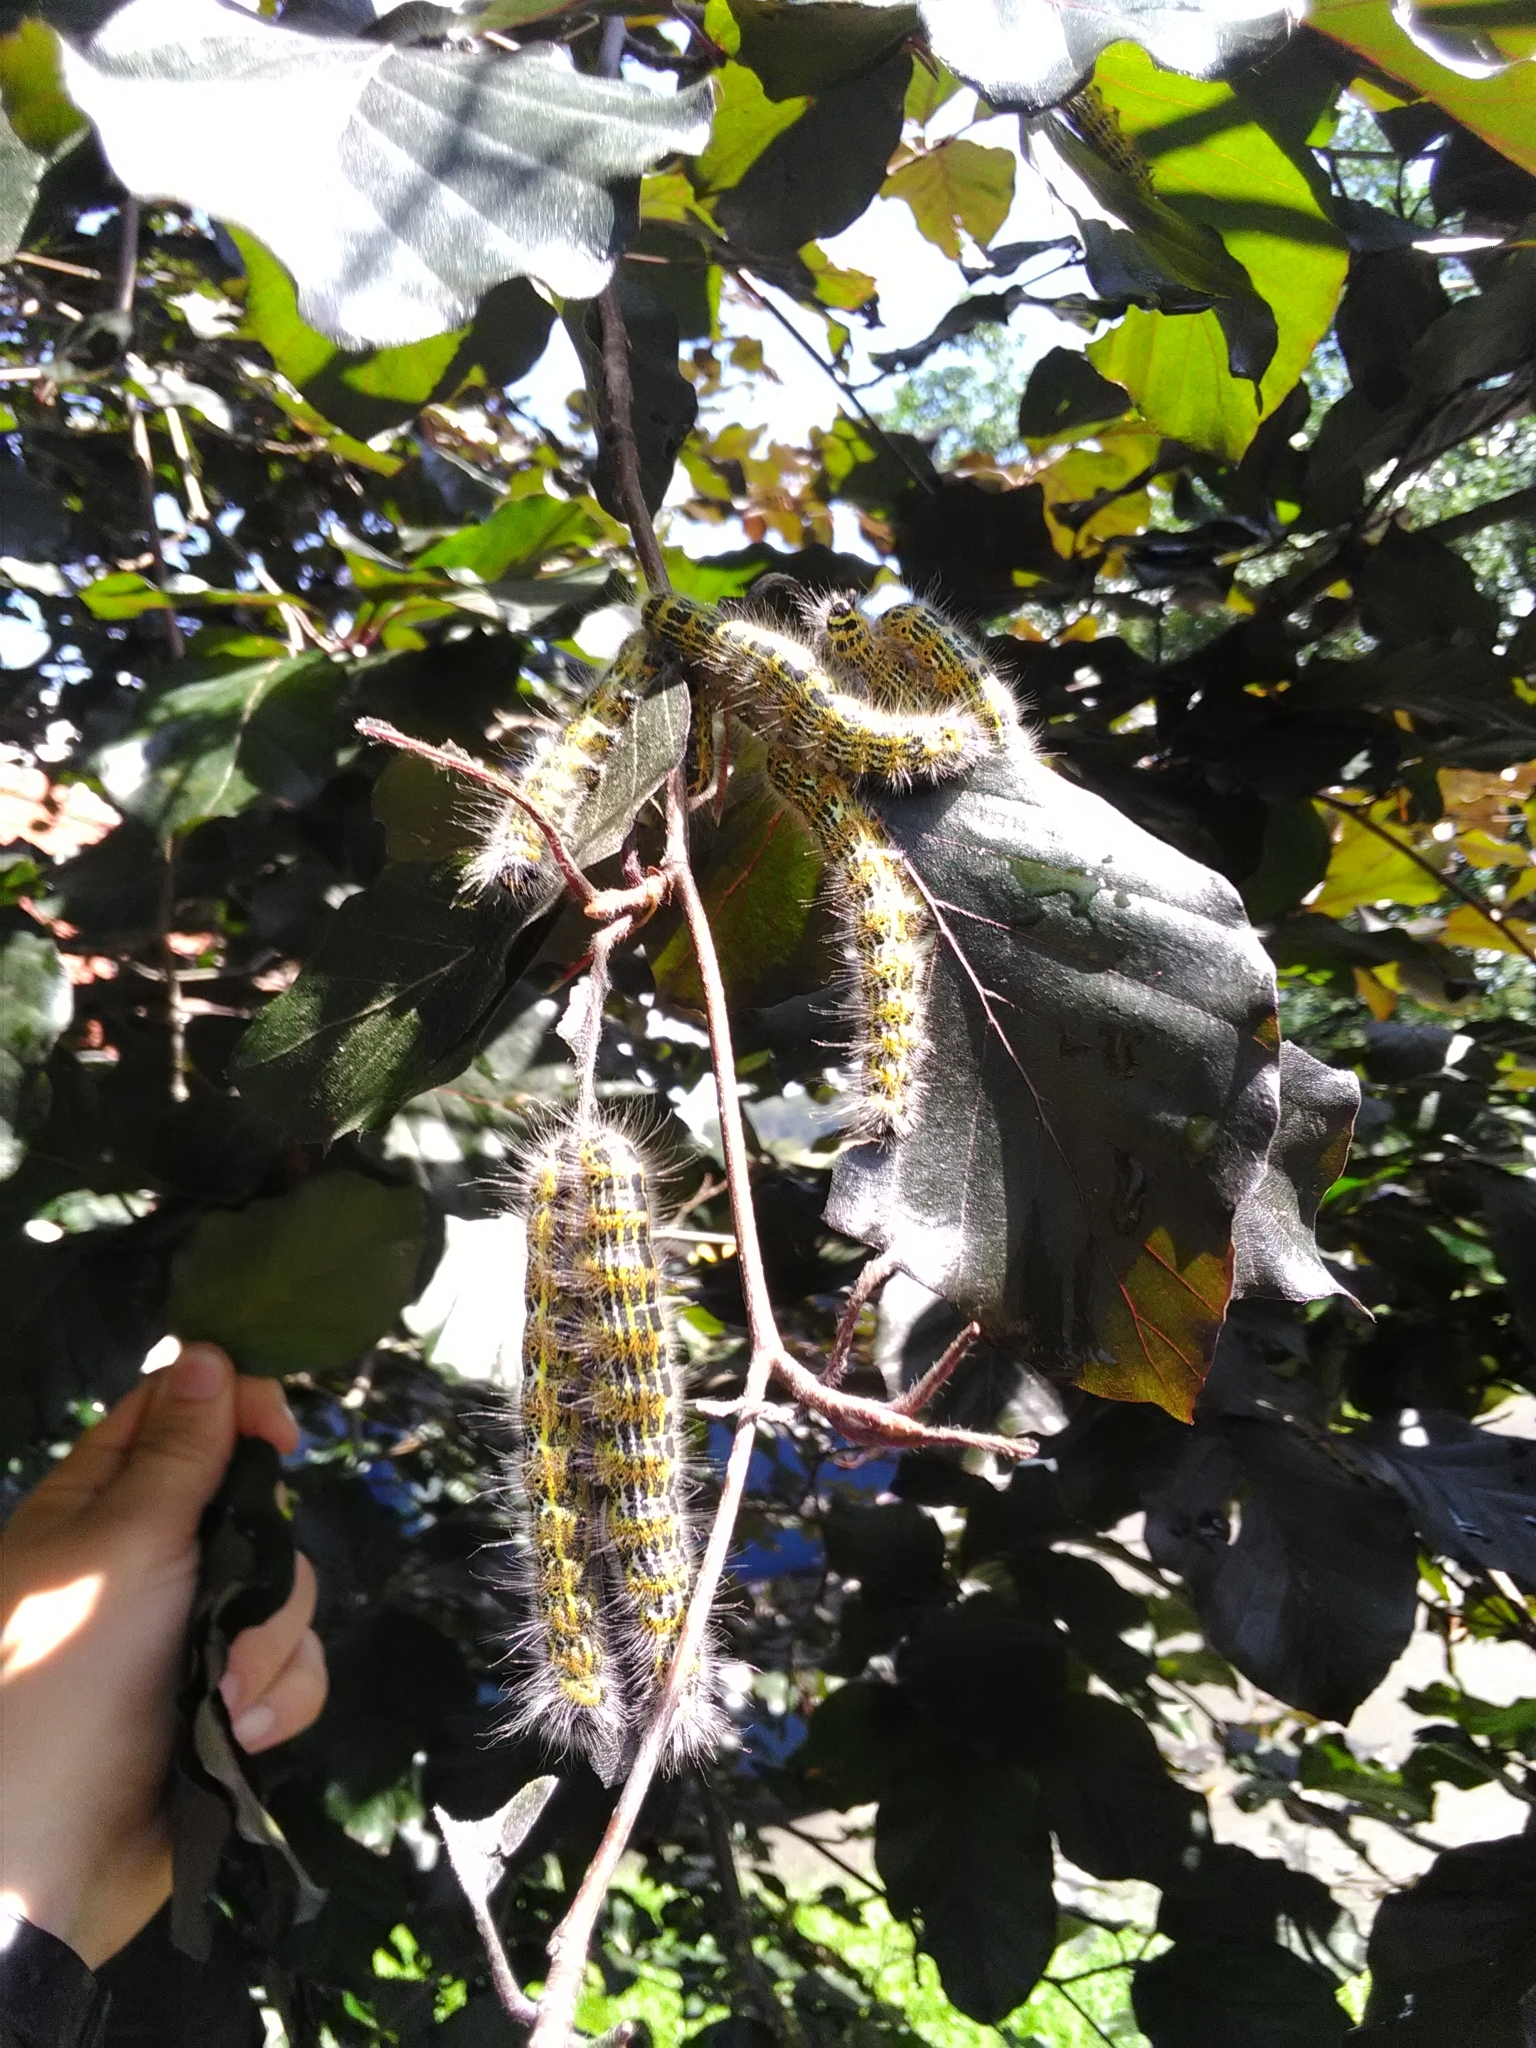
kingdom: Animalia
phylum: Arthropoda
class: Insecta
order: Lepidoptera
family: Notodontidae
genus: Phalera
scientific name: Phalera bucephala
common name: Buff-tip
